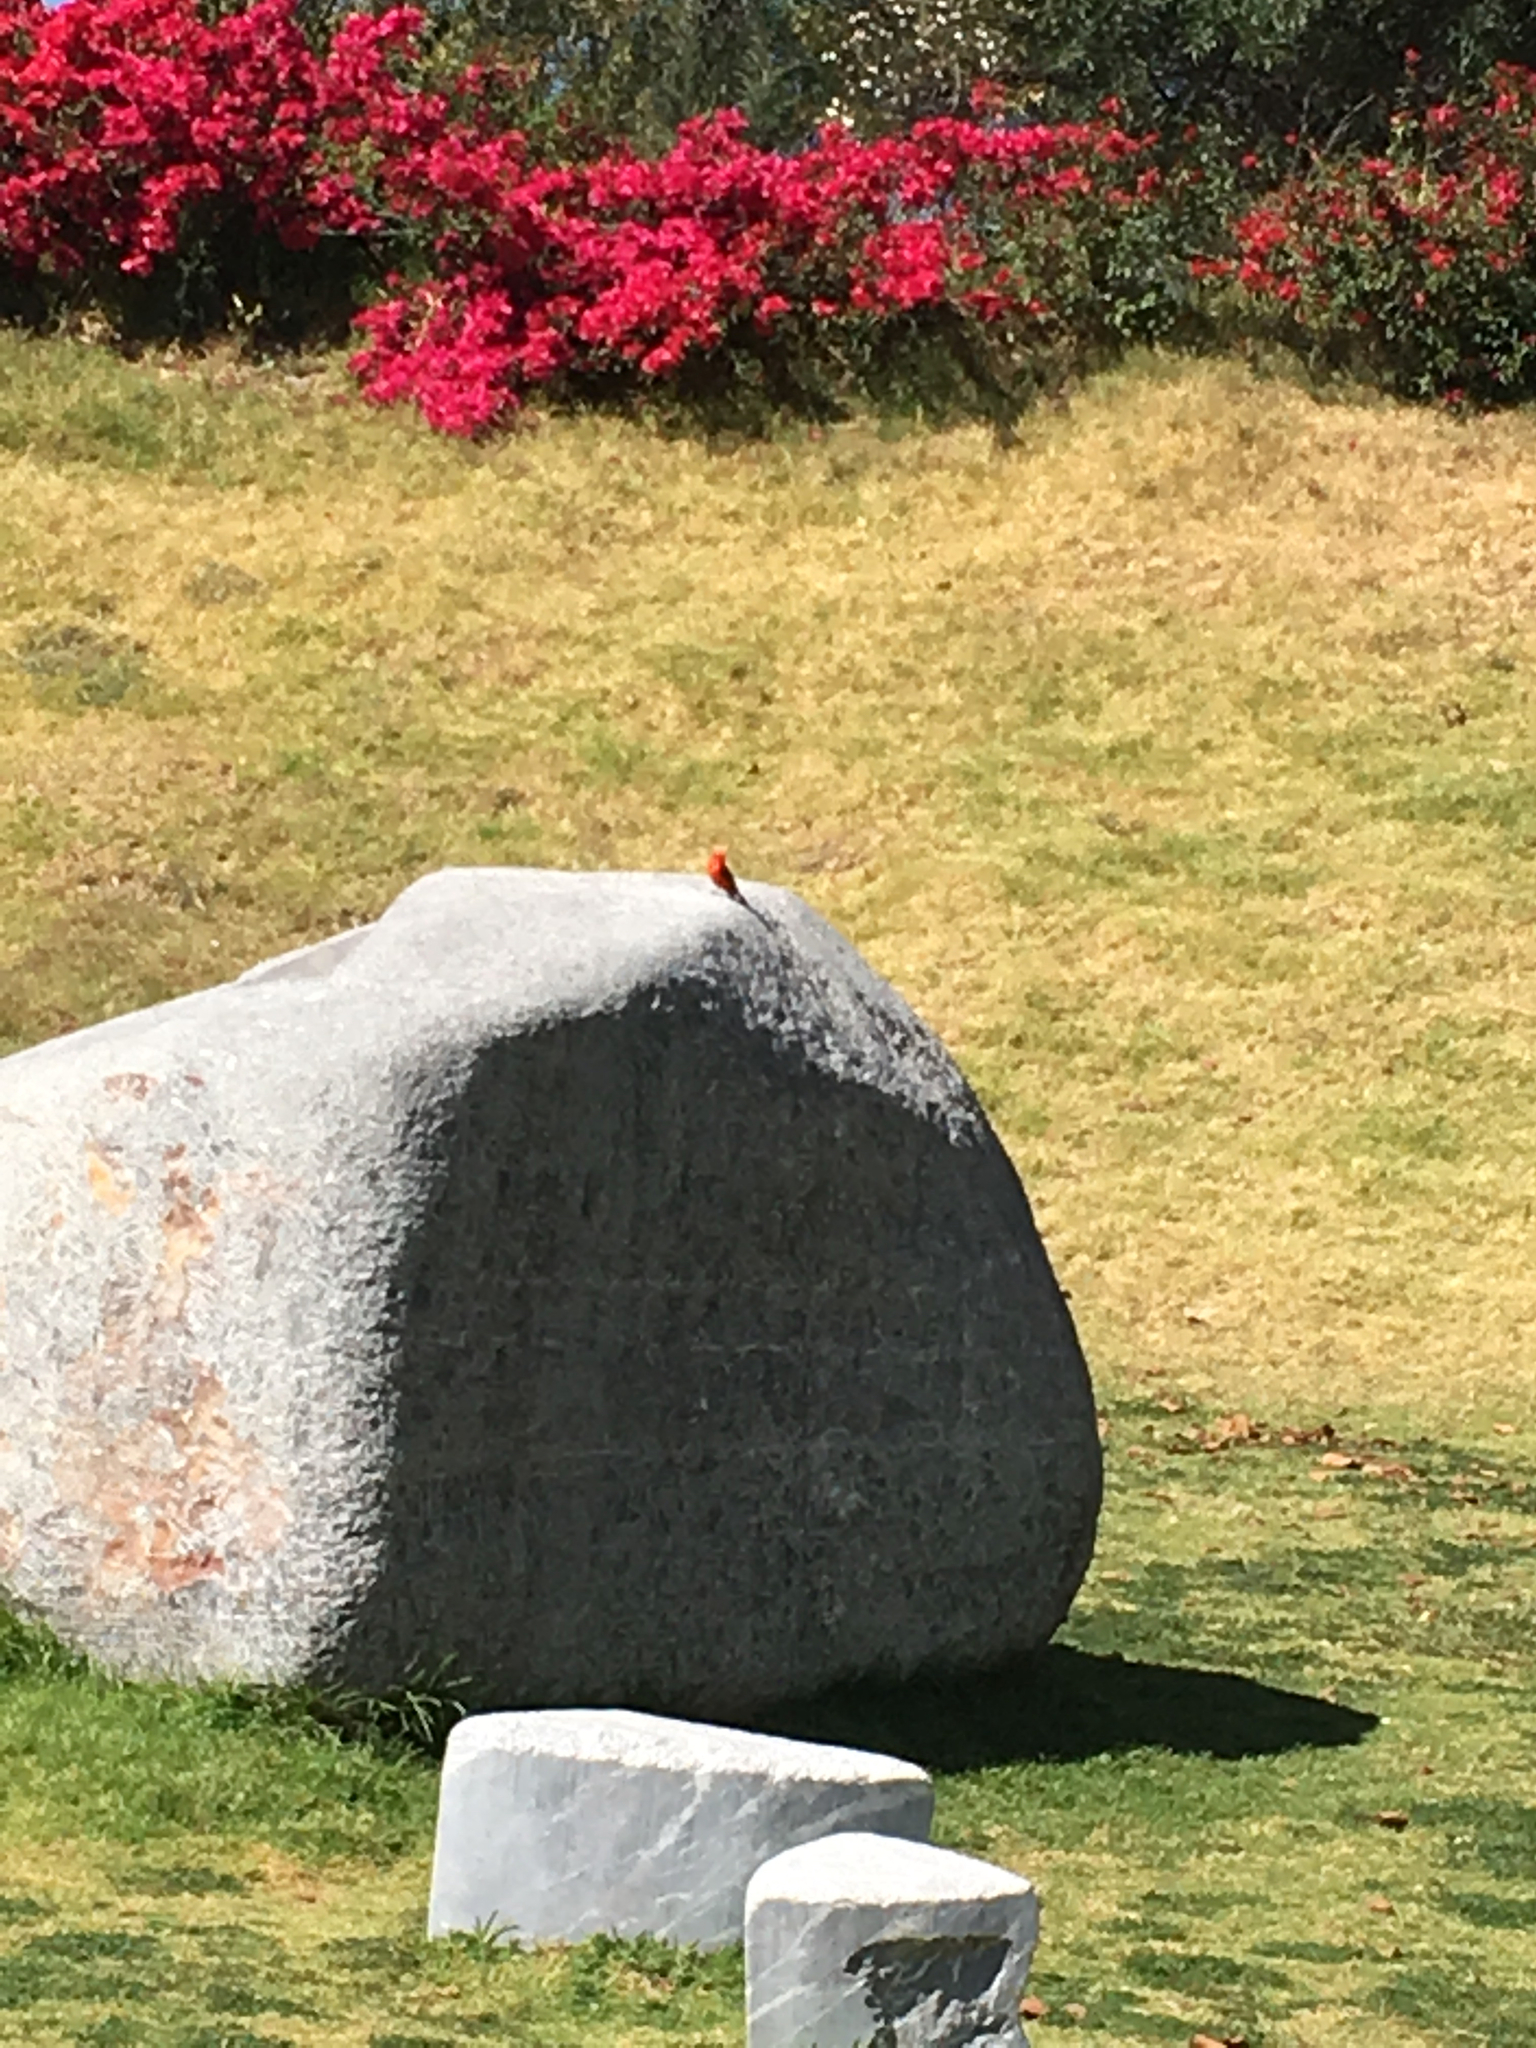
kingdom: Animalia
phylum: Chordata
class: Aves
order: Passeriformes
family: Tyrannidae
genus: Pyrocephalus
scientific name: Pyrocephalus rubinus
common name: Vermilion flycatcher
